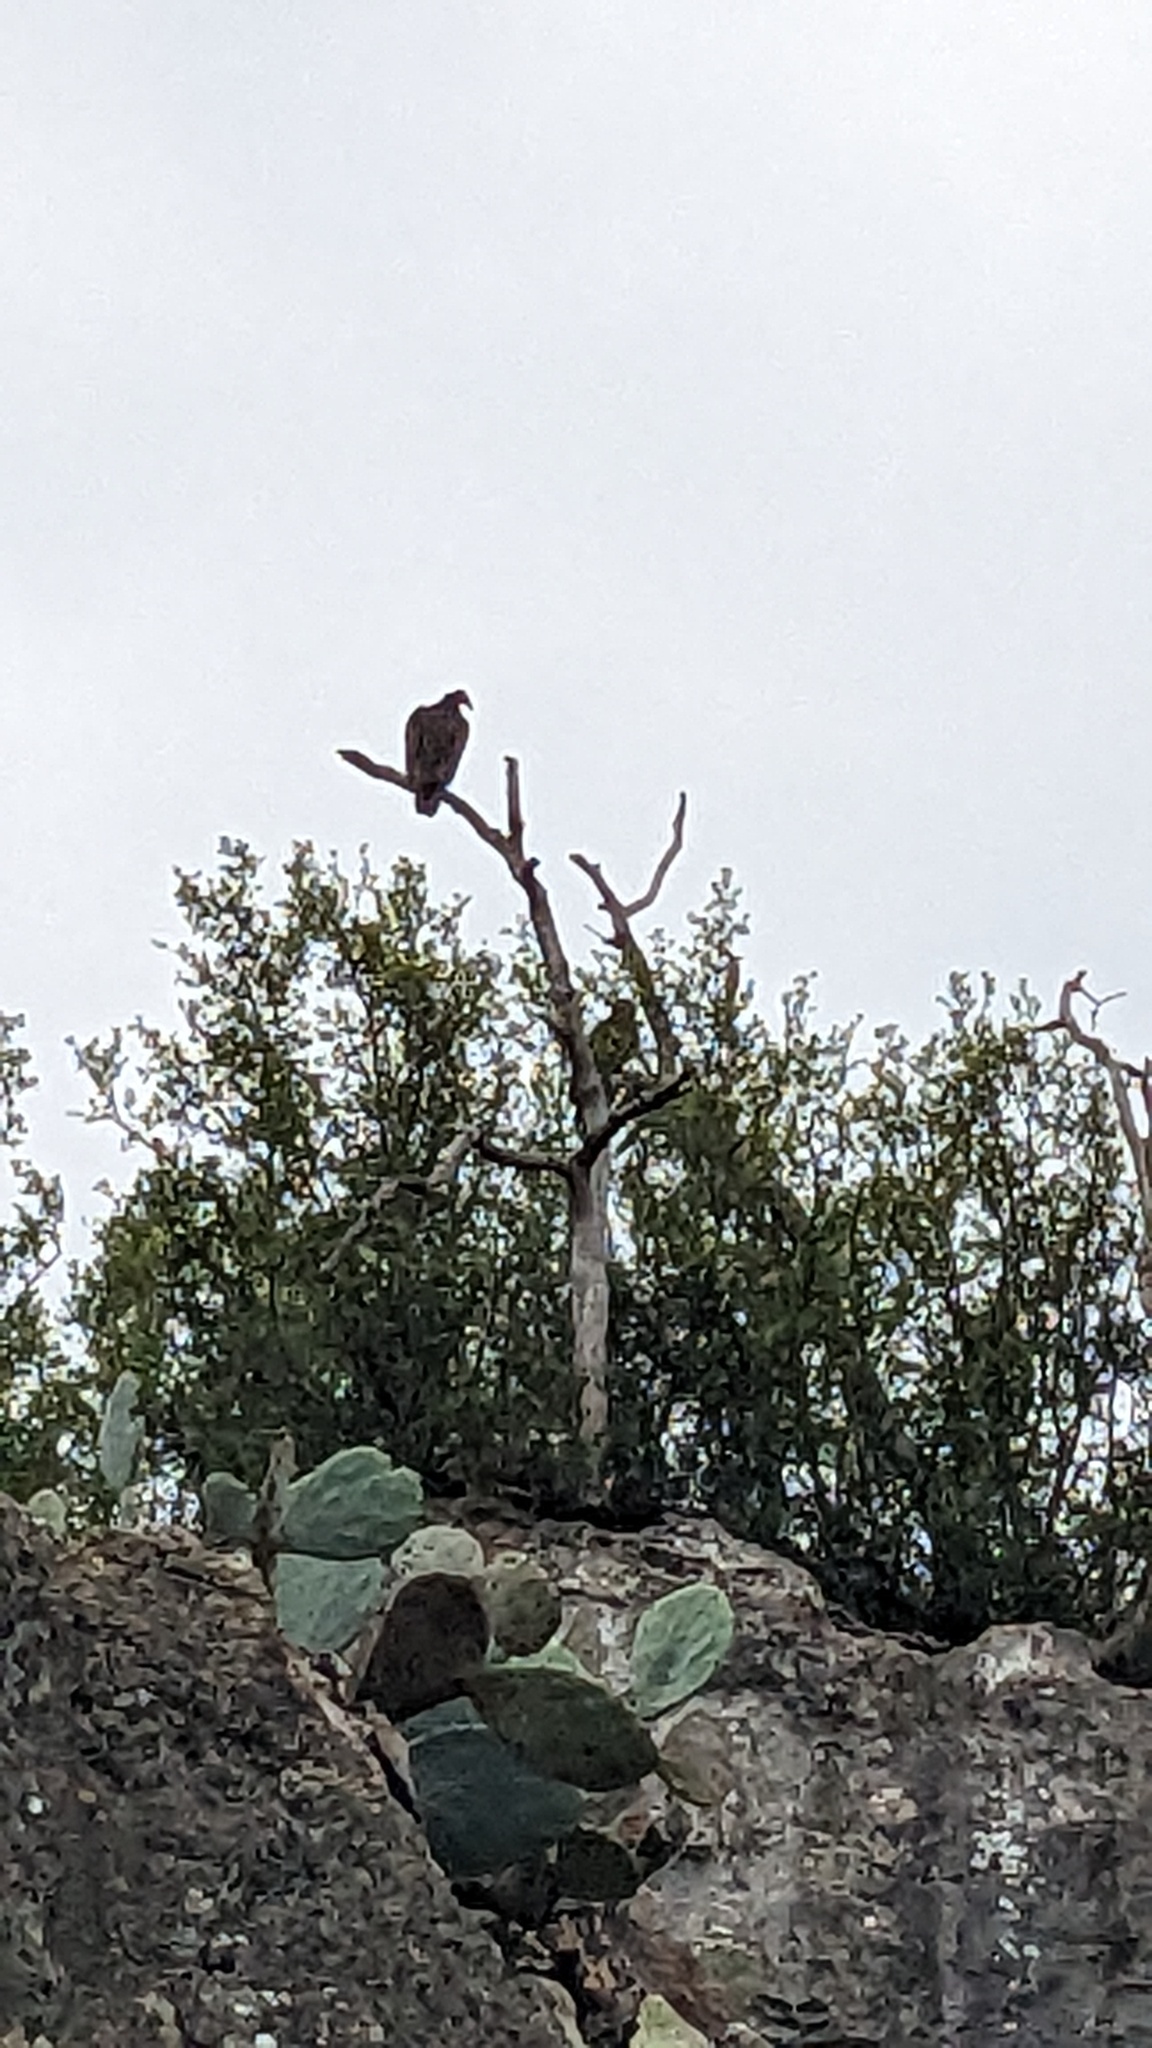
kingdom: Animalia
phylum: Chordata
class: Aves
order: Accipitriformes
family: Cathartidae
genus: Cathartes
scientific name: Cathartes aura
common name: Turkey vulture
